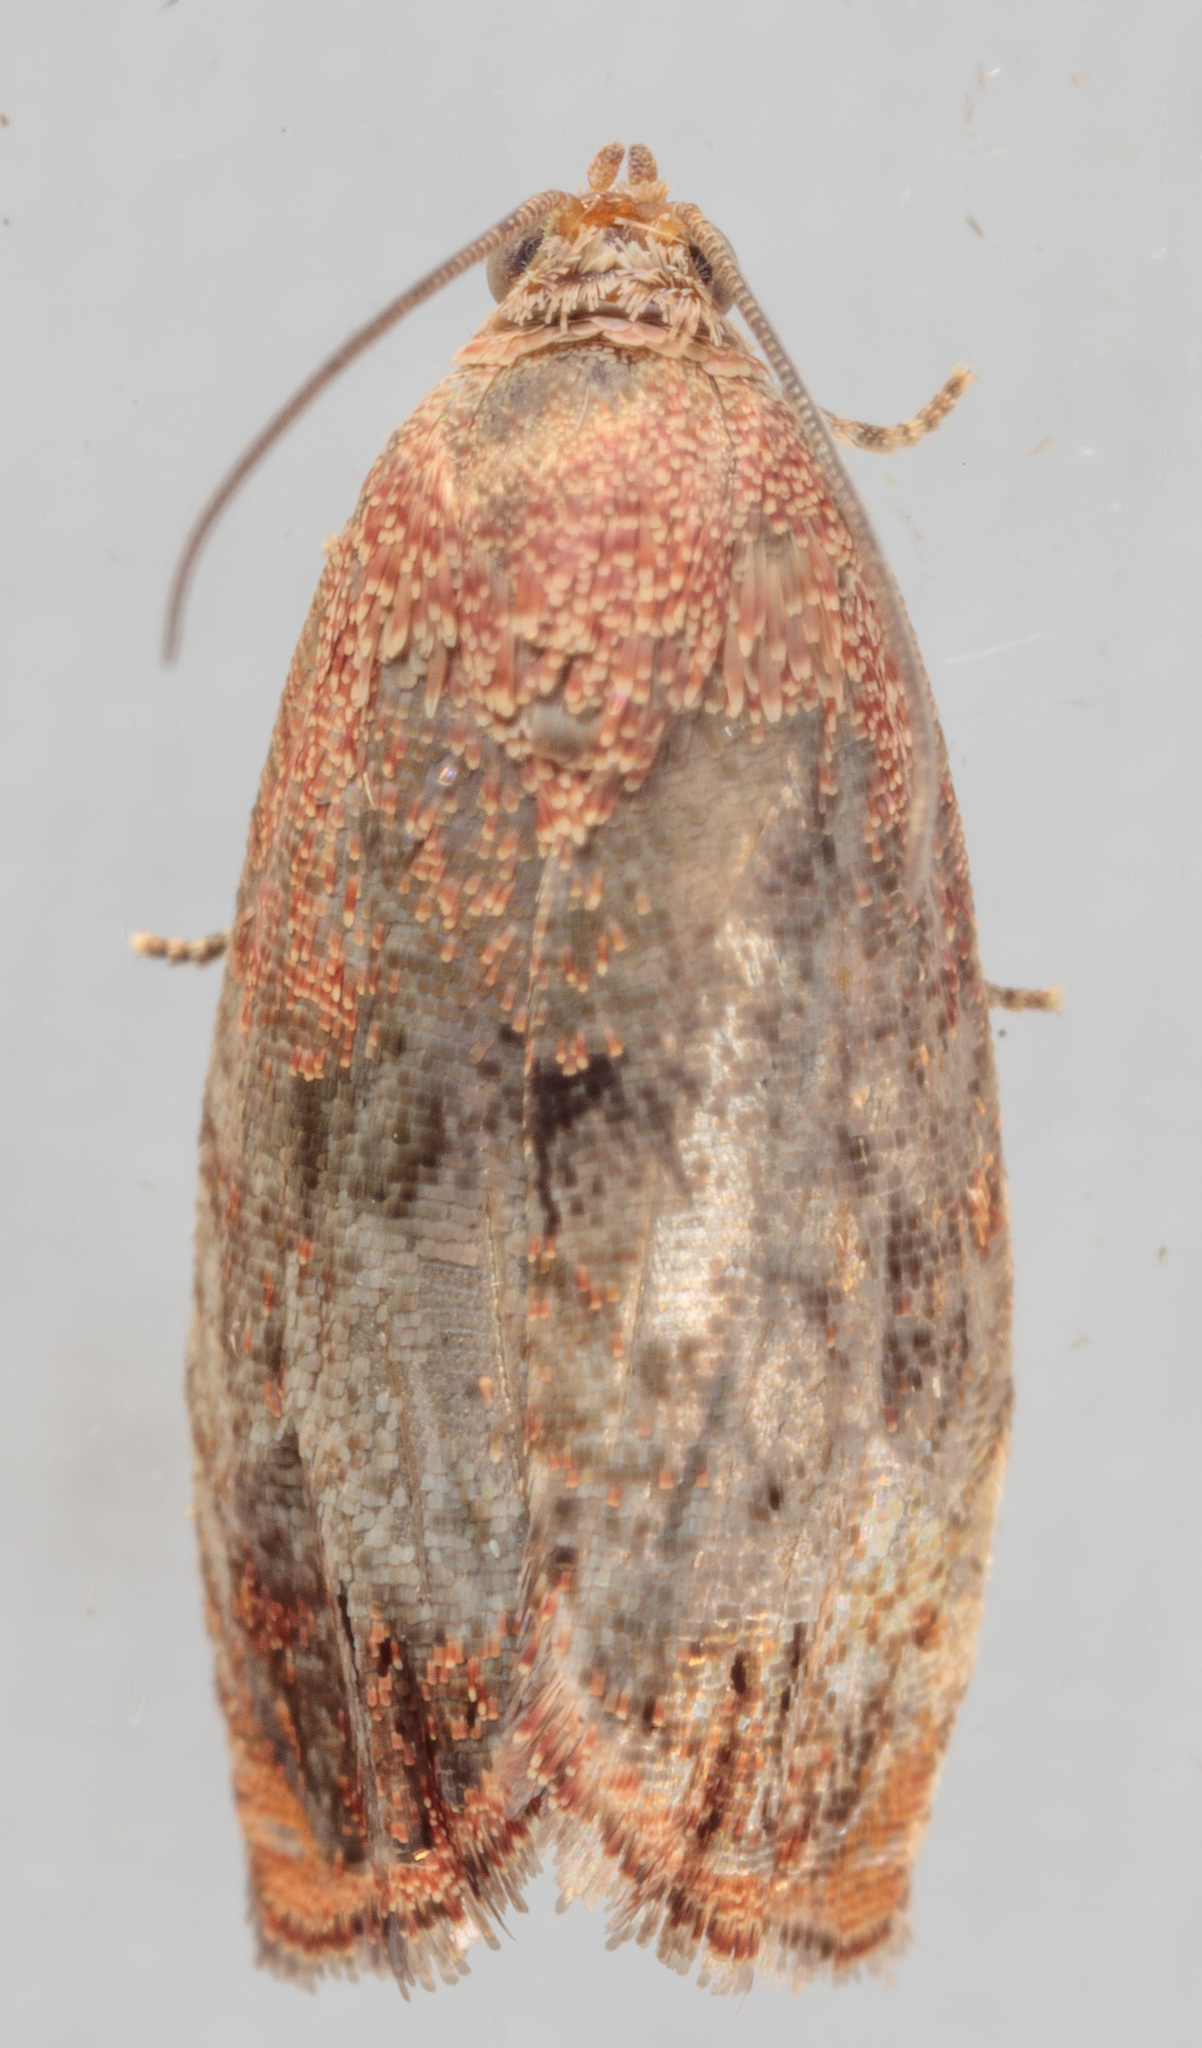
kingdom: Animalia
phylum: Arthropoda
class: Insecta
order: Lepidoptera
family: Tortricidae
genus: Cydia
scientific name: Cydia latiferreana
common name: Filbertworm moth
